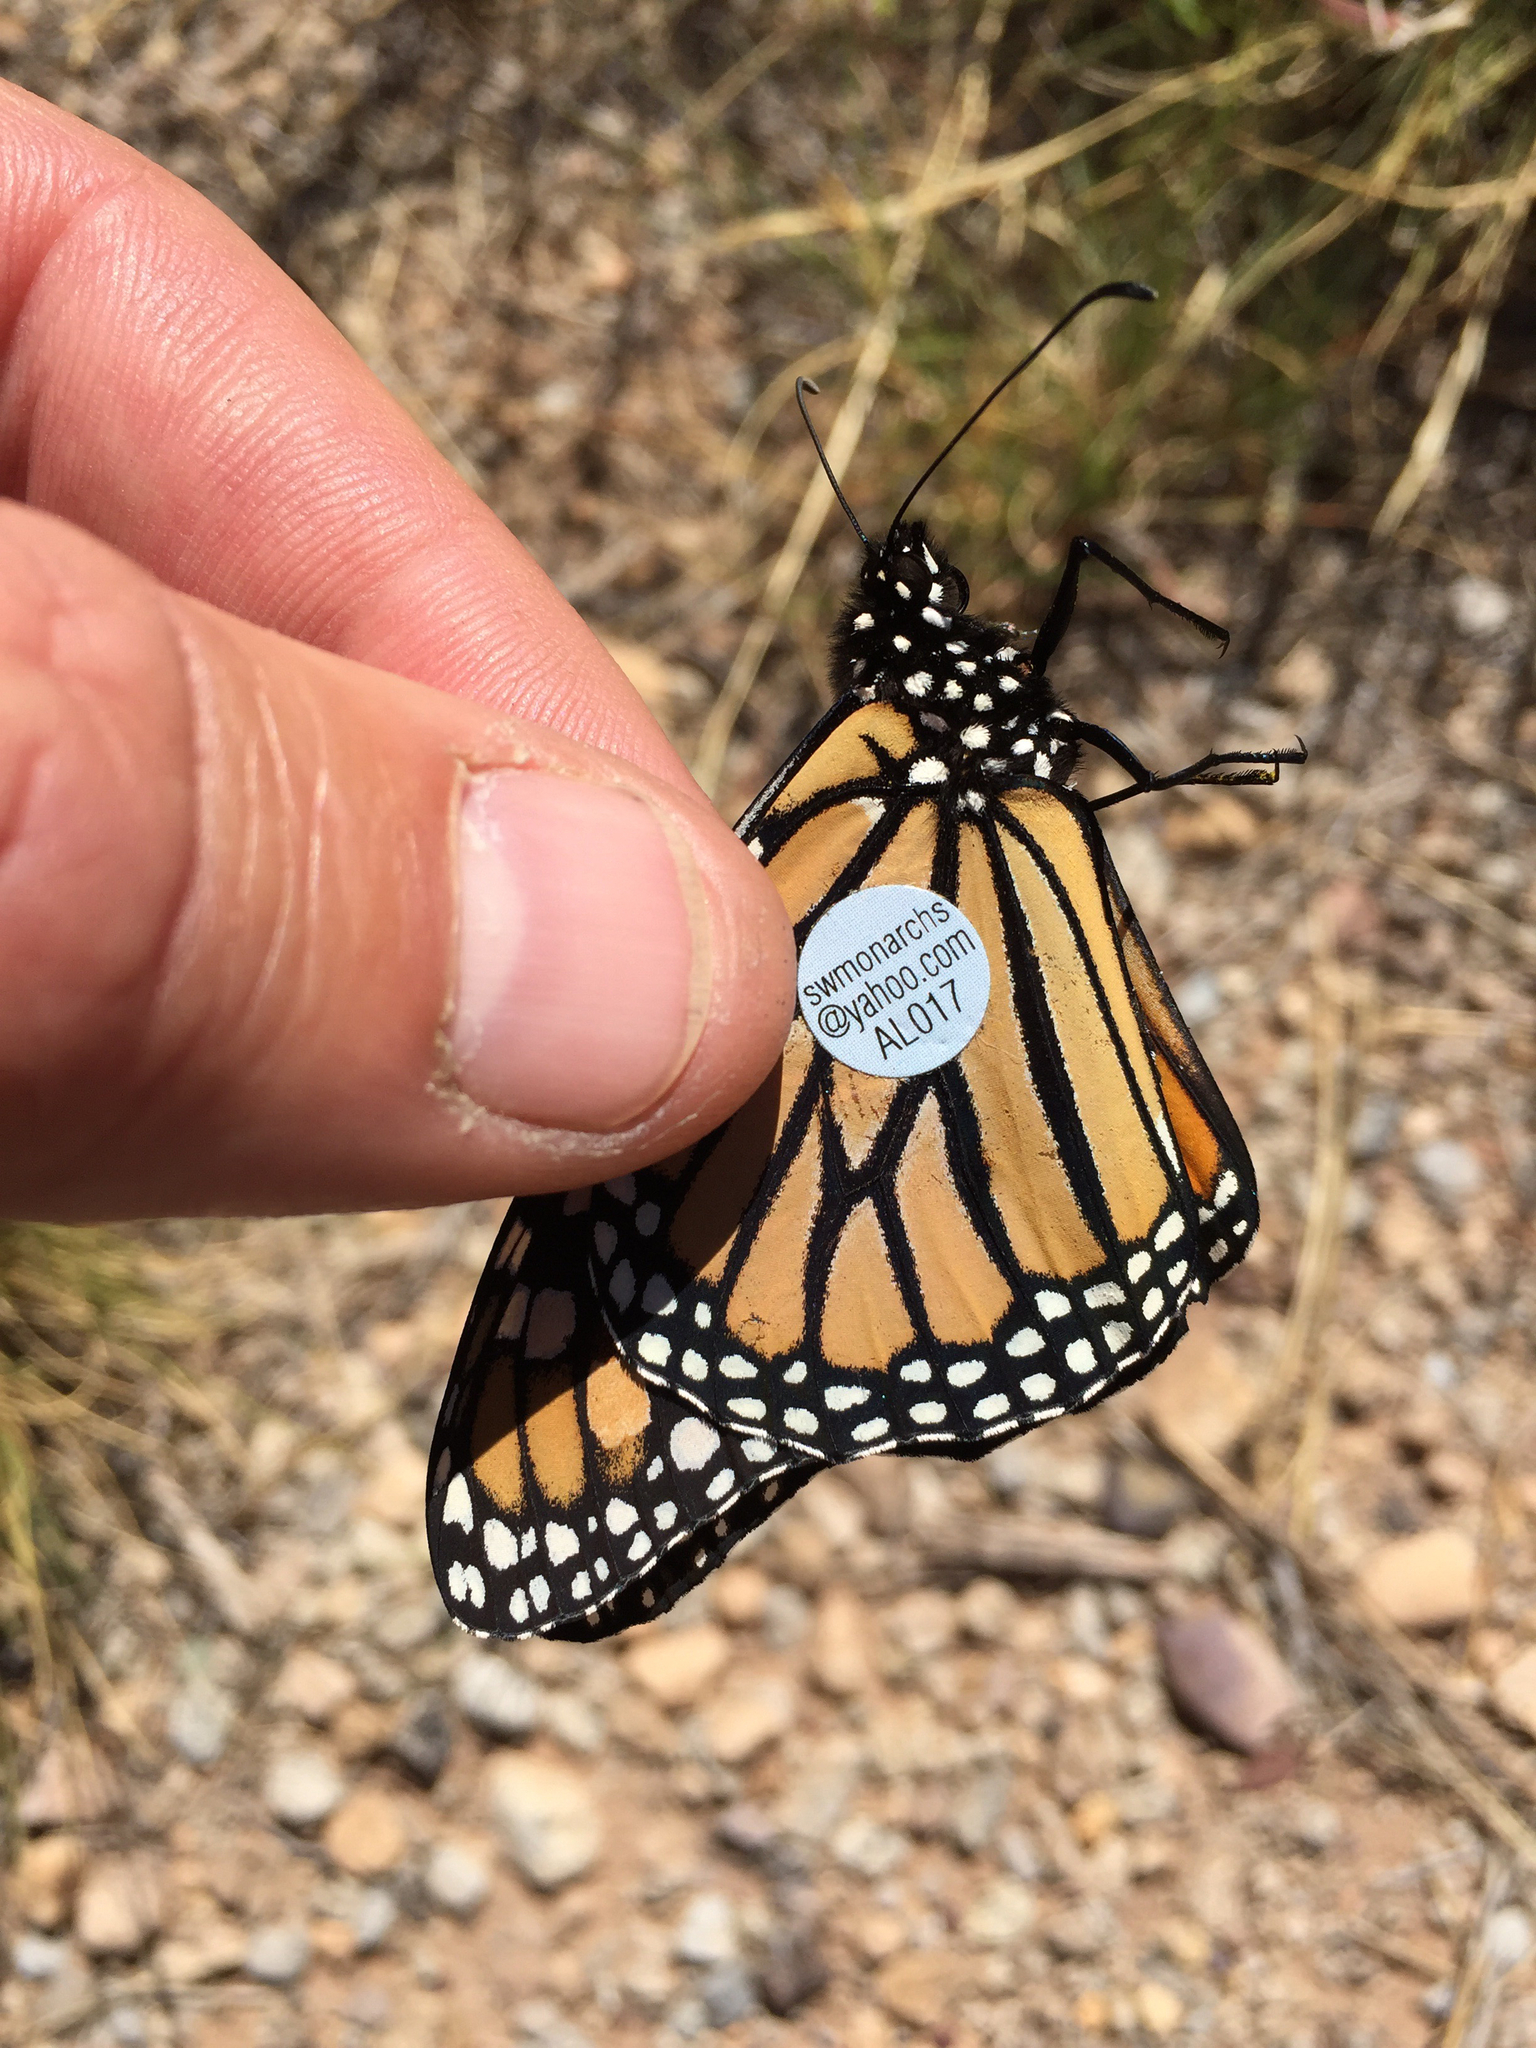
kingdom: Animalia
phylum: Arthropoda
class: Insecta
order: Lepidoptera
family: Nymphalidae
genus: Danaus
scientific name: Danaus plexippus
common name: Monarch
